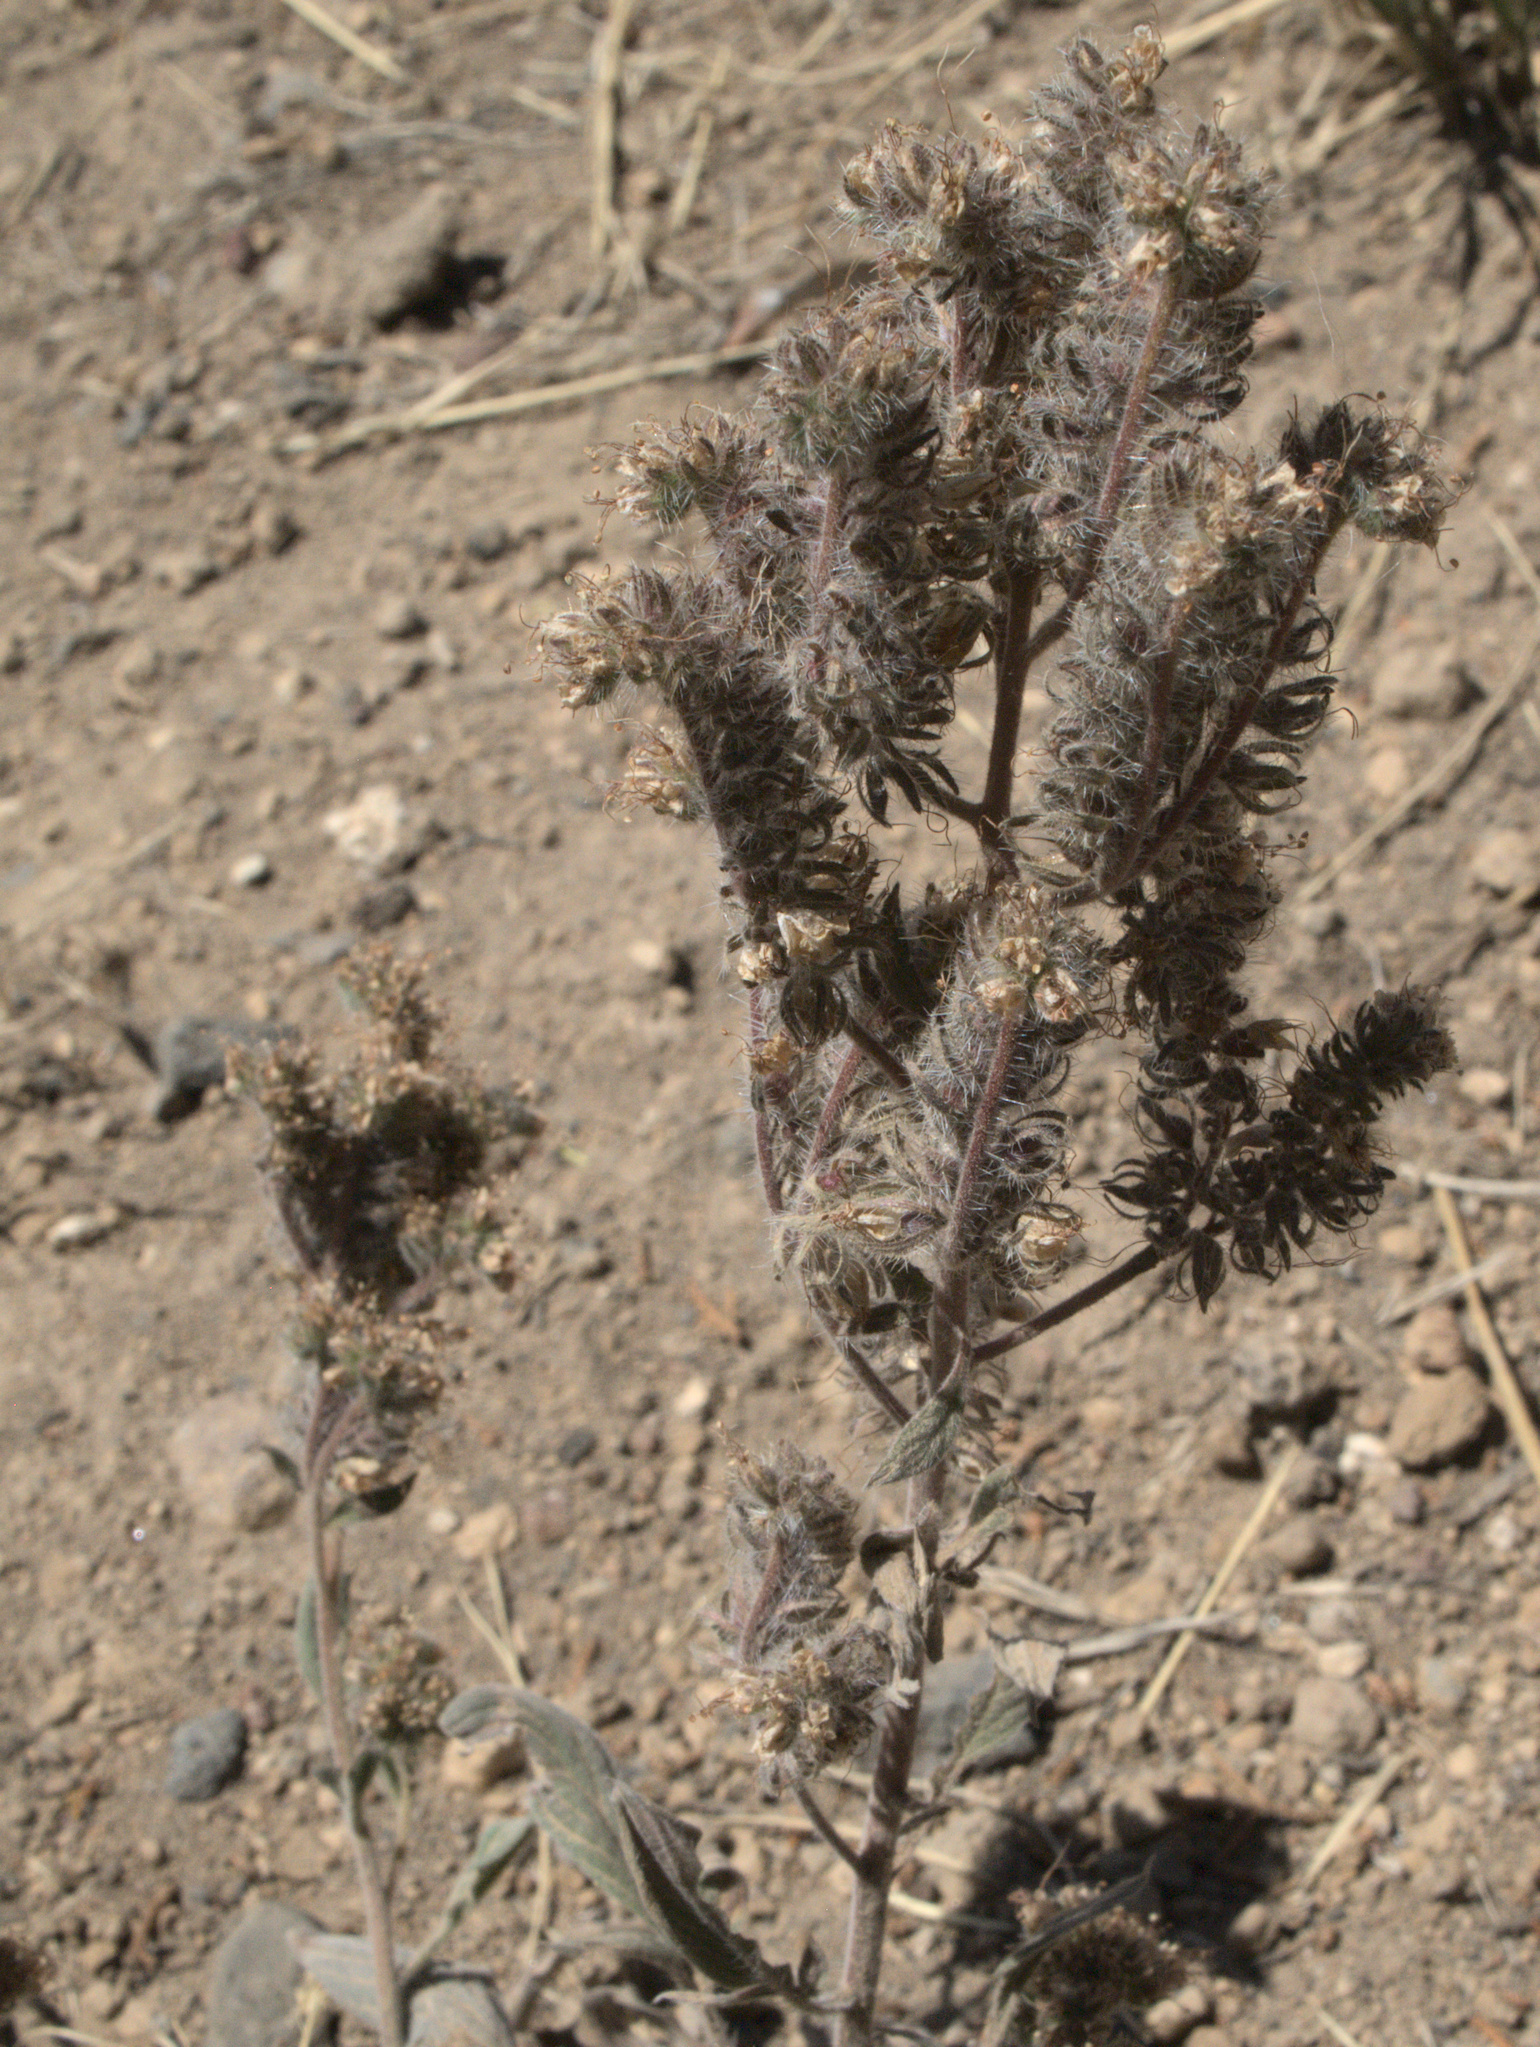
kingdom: Plantae
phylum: Tracheophyta
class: Magnoliopsida
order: Boraginales
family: Hydrophyllaceae
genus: Phacelia
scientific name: Phacelia hastata
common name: Silver-leaved phacelia
